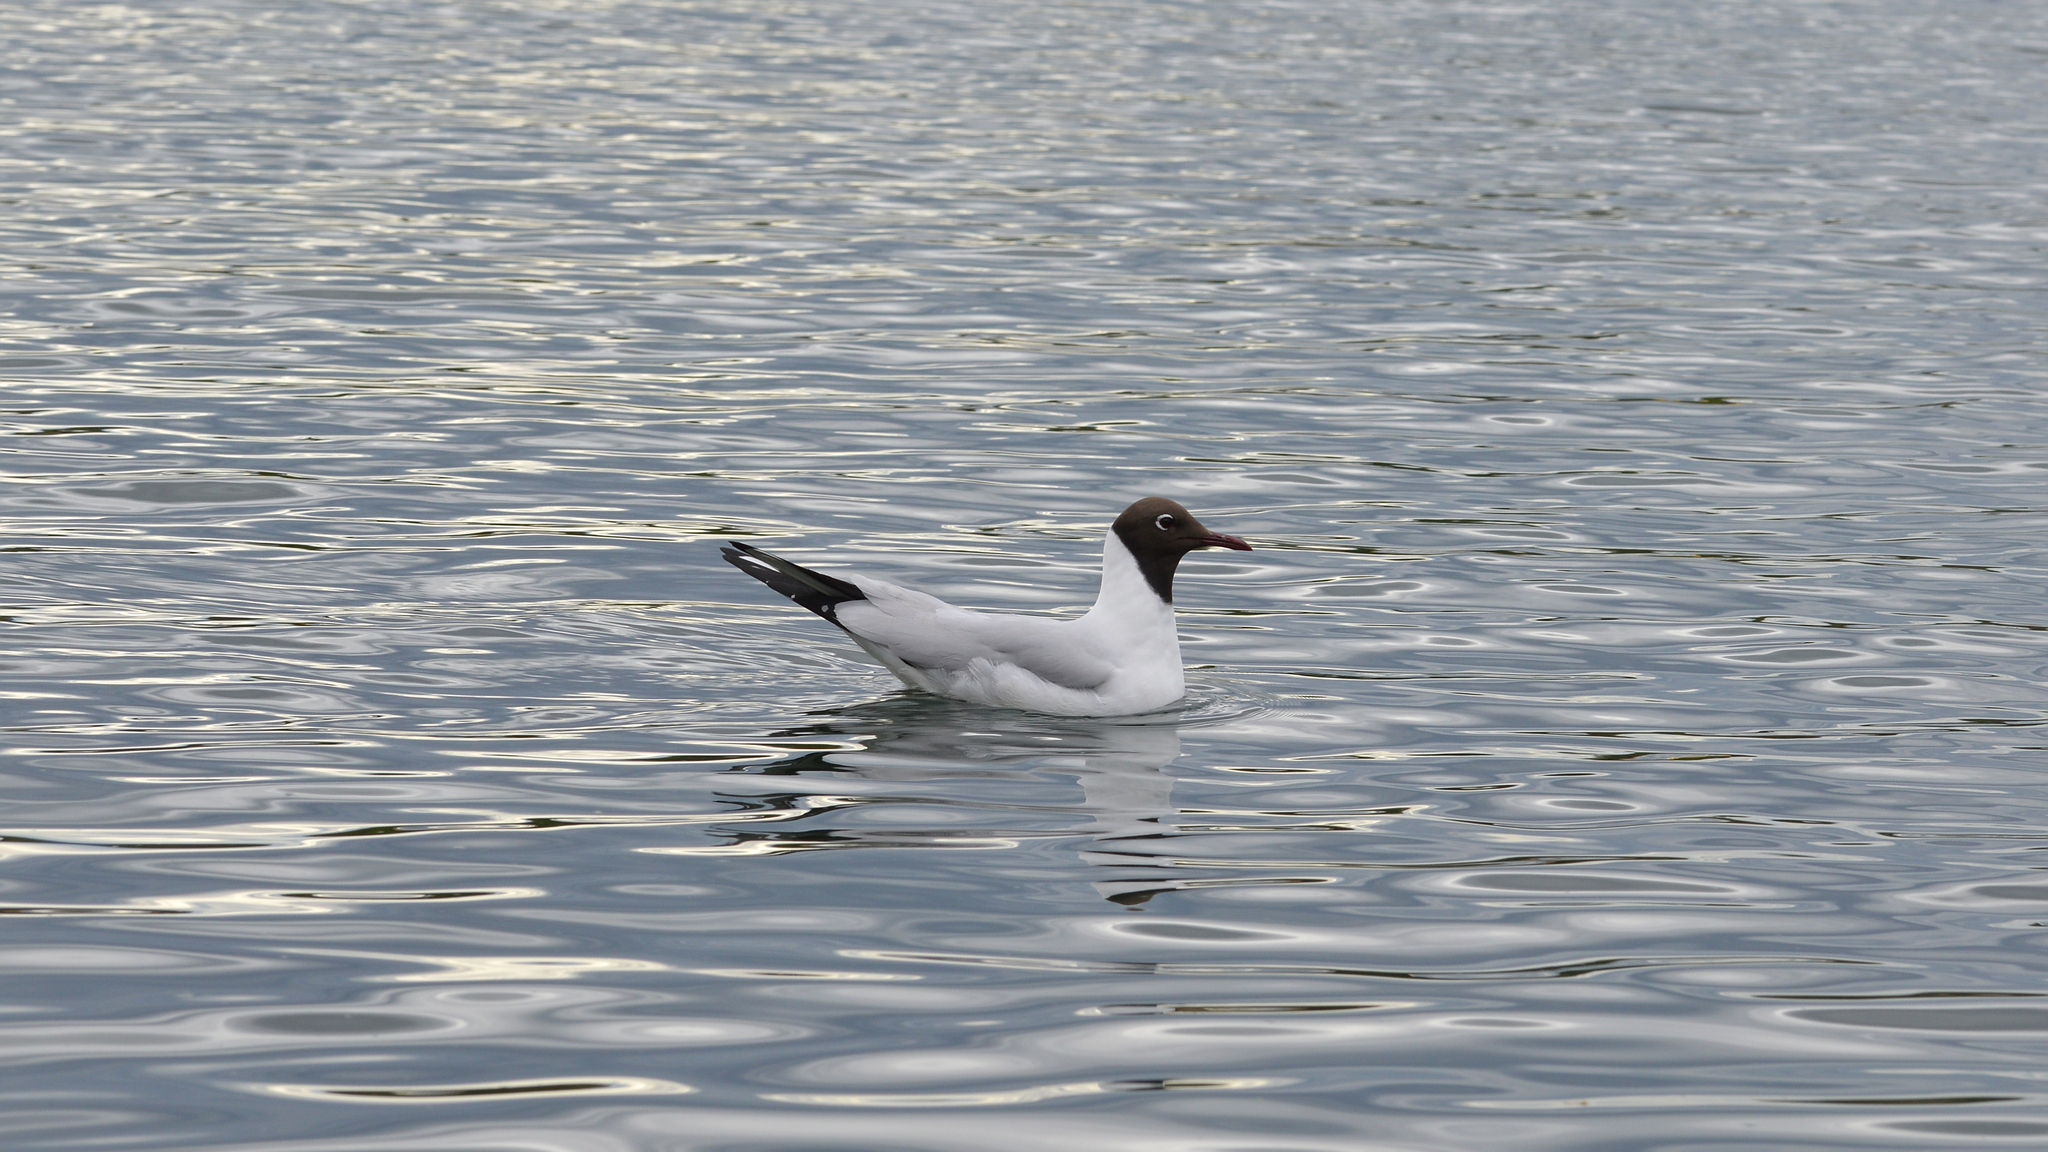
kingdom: Animalia
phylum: Chordata
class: Aves
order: Charadriiformes
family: Laridae
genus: Chroicocephalus
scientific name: Chroicocephalus ridibundus
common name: Black-headed gull
